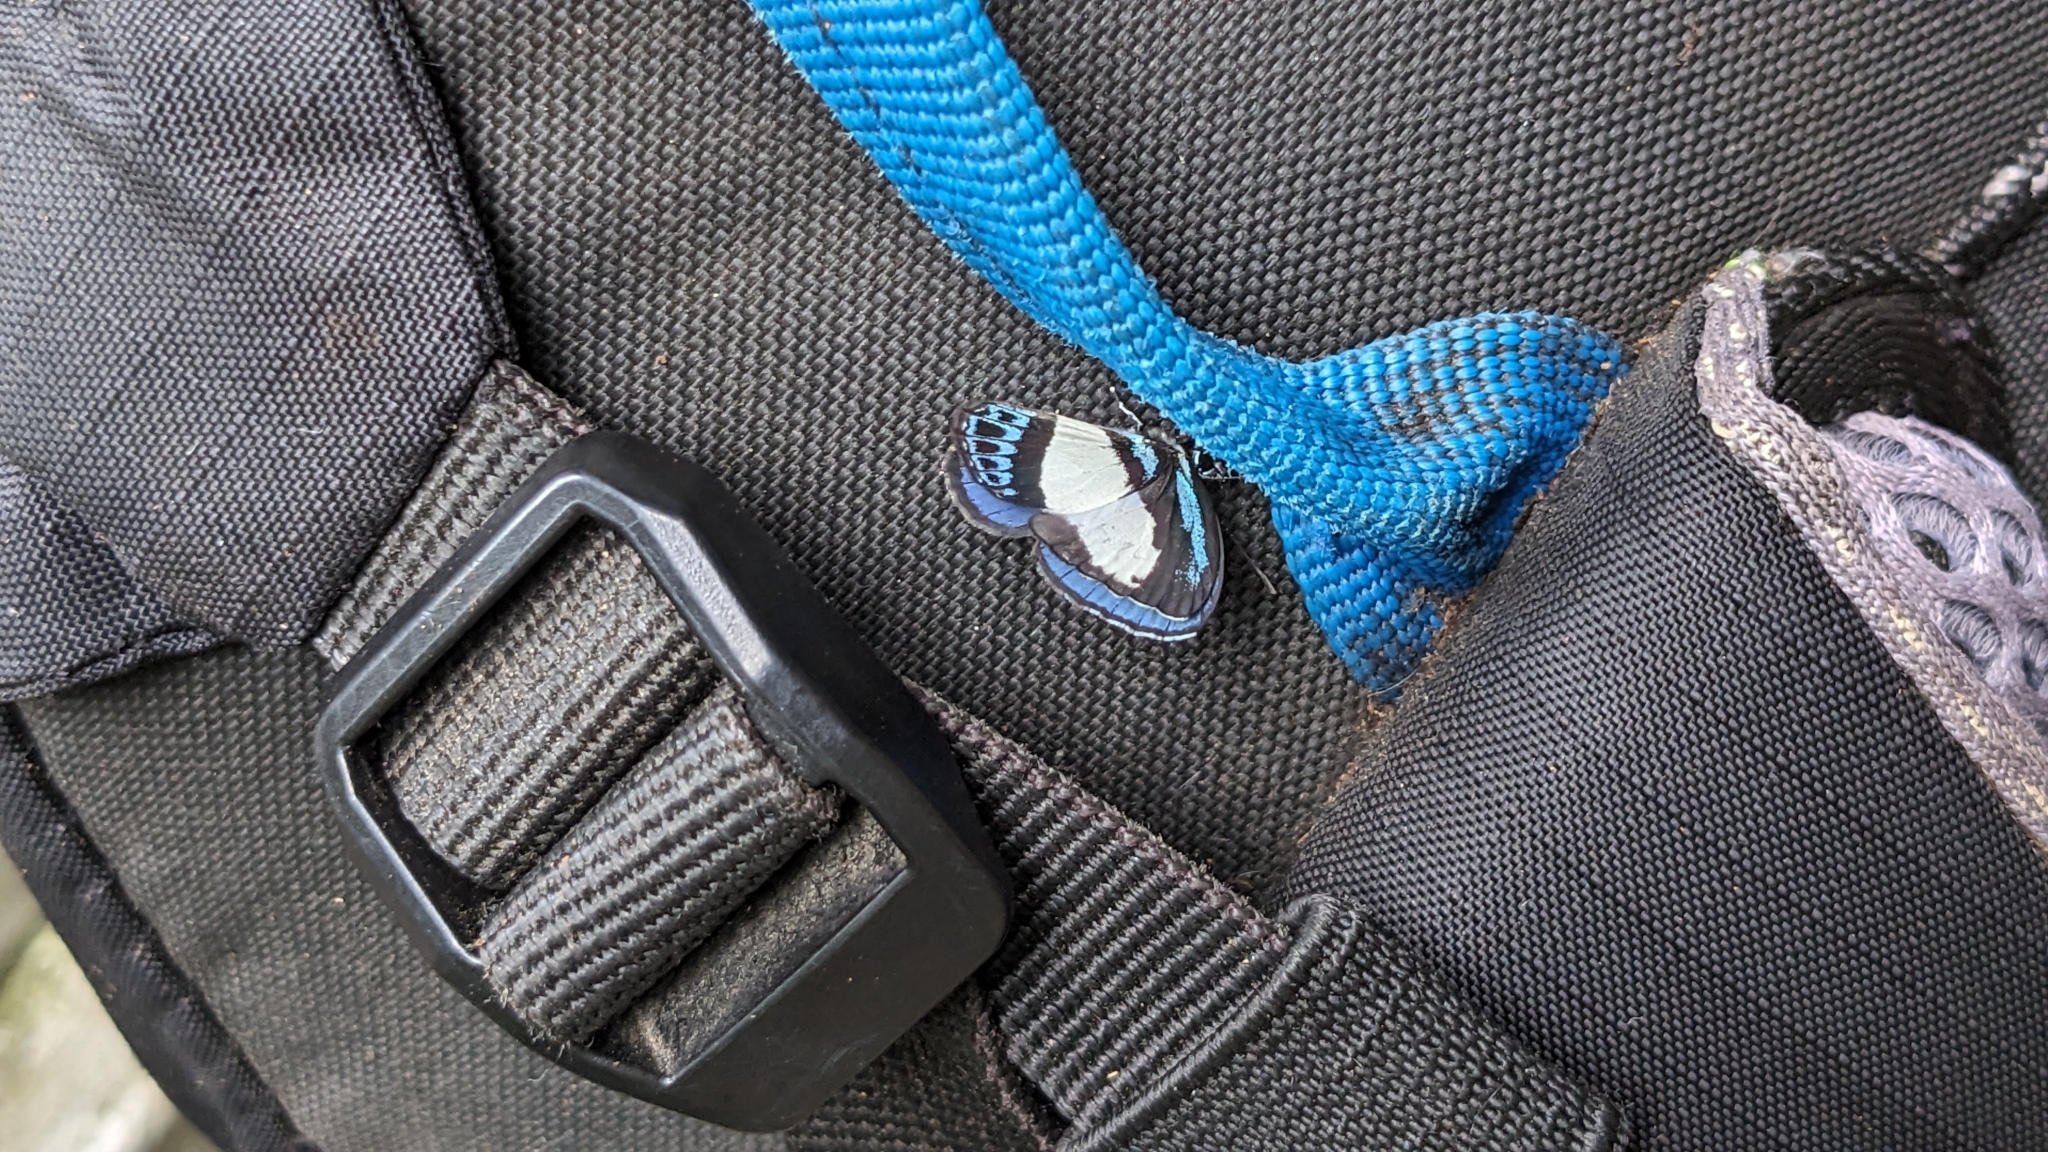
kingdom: Animalia
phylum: Arthropoda
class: Insecta
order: Lepidoptera
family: Lycaenidae
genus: Psychonotis
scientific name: Psychonotis caelius
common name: Small green banded blue
